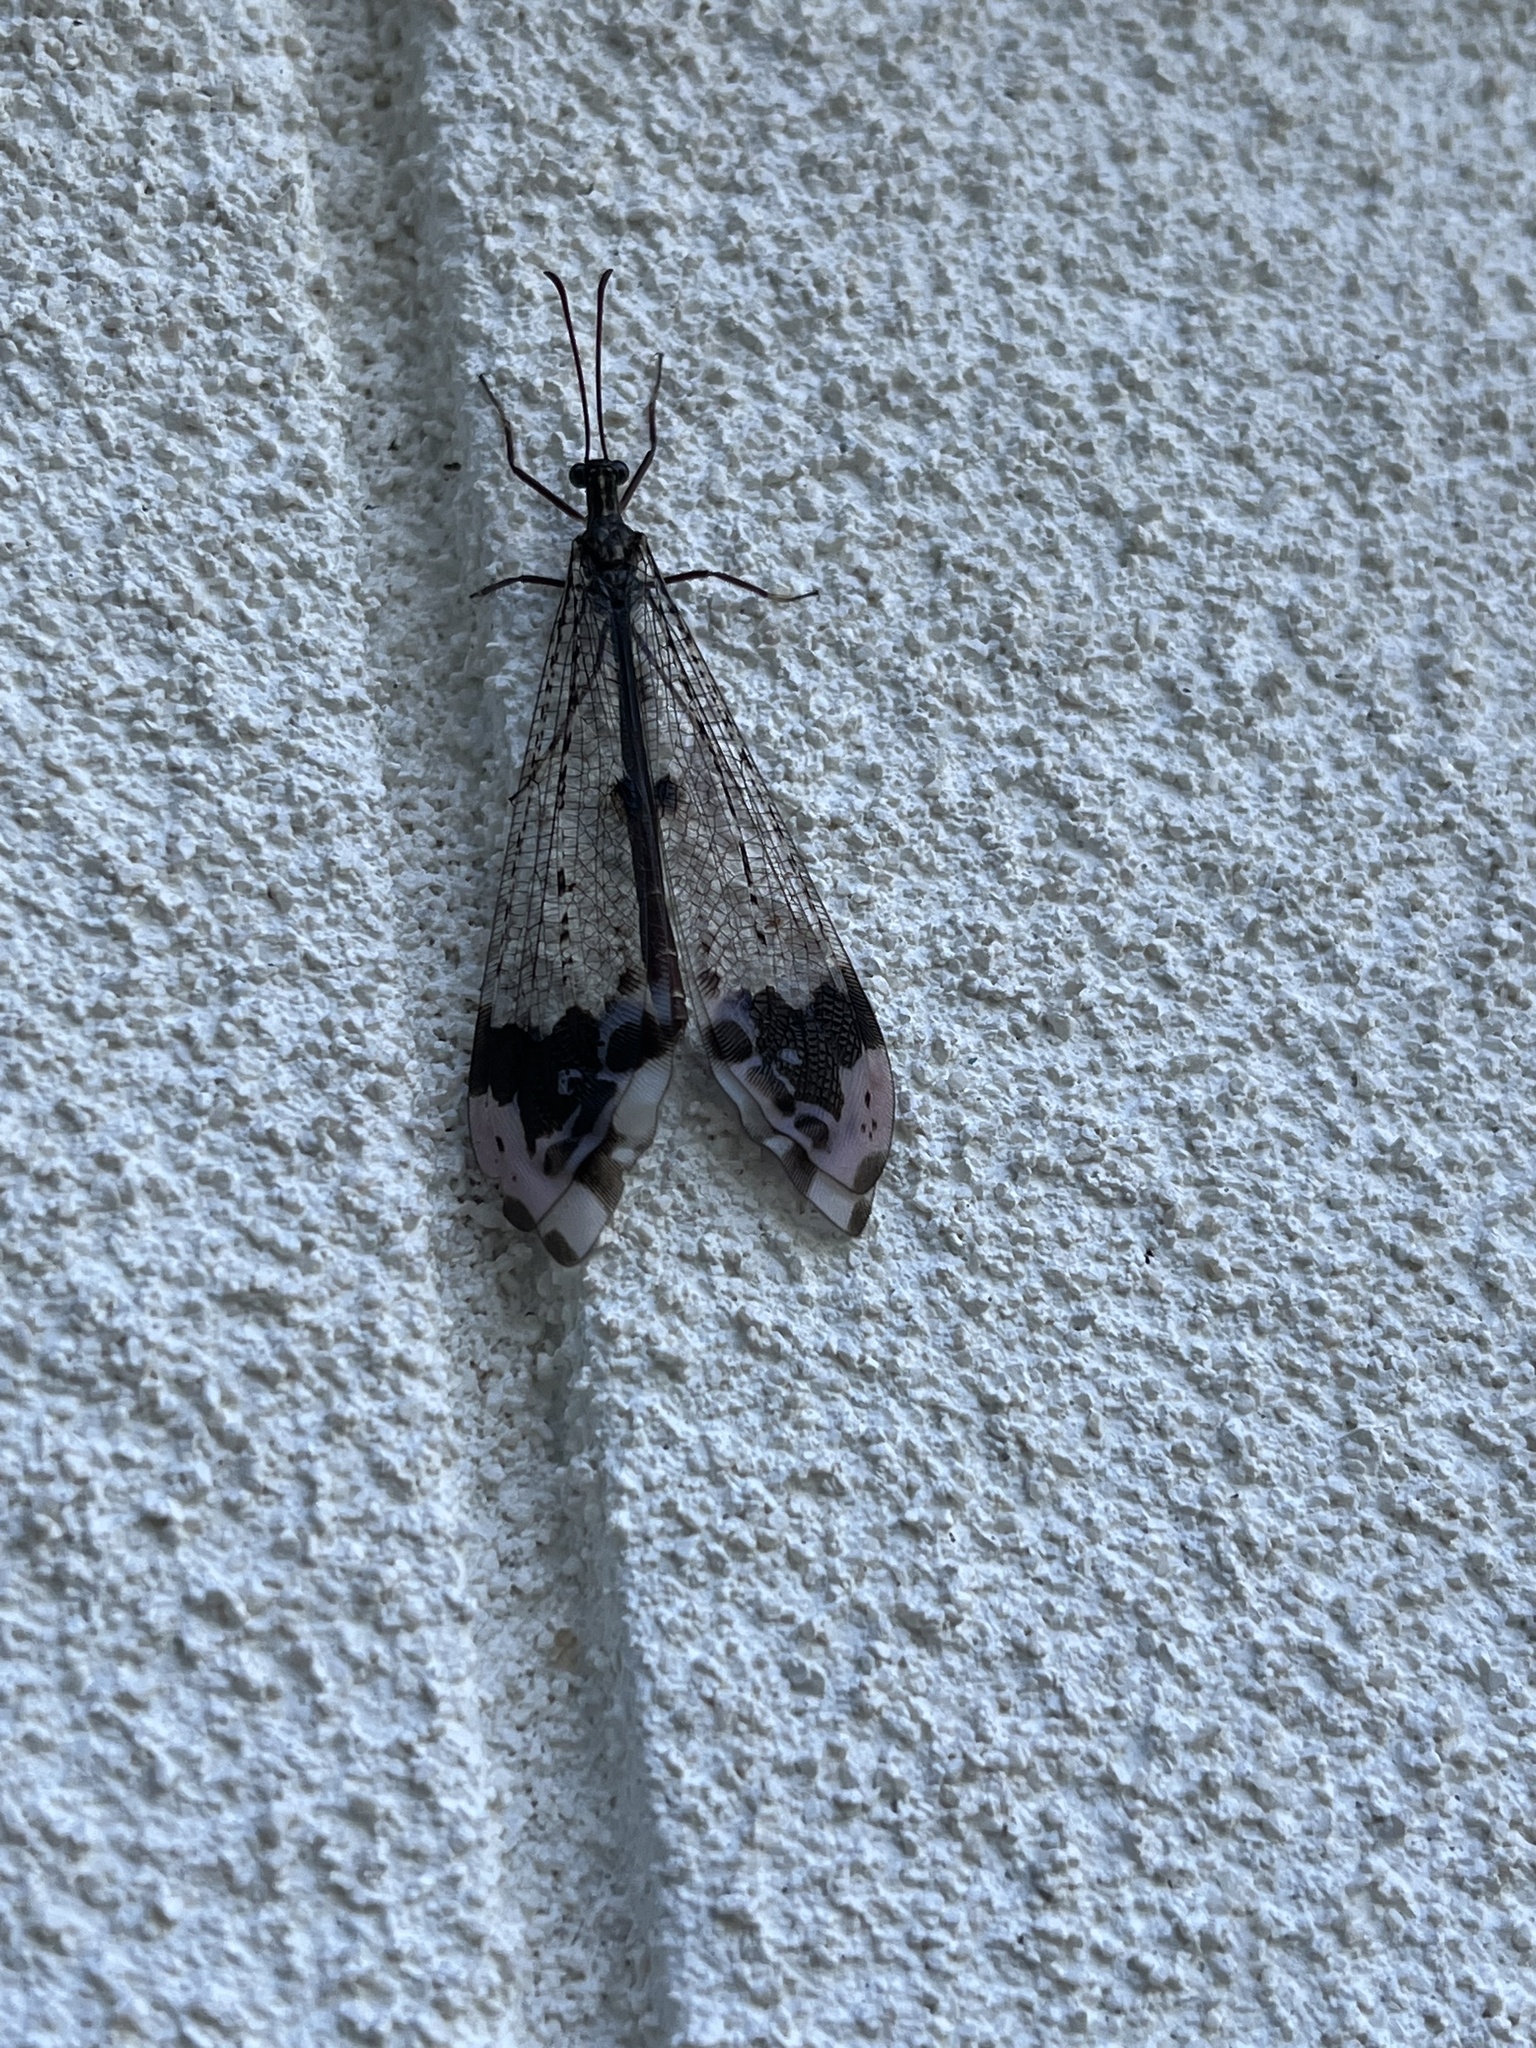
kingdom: Animalia
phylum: Arthropoda
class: Insecta
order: Neuroptera
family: Myrmeleontidae
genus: Glenurus
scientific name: Glenurus gratus
